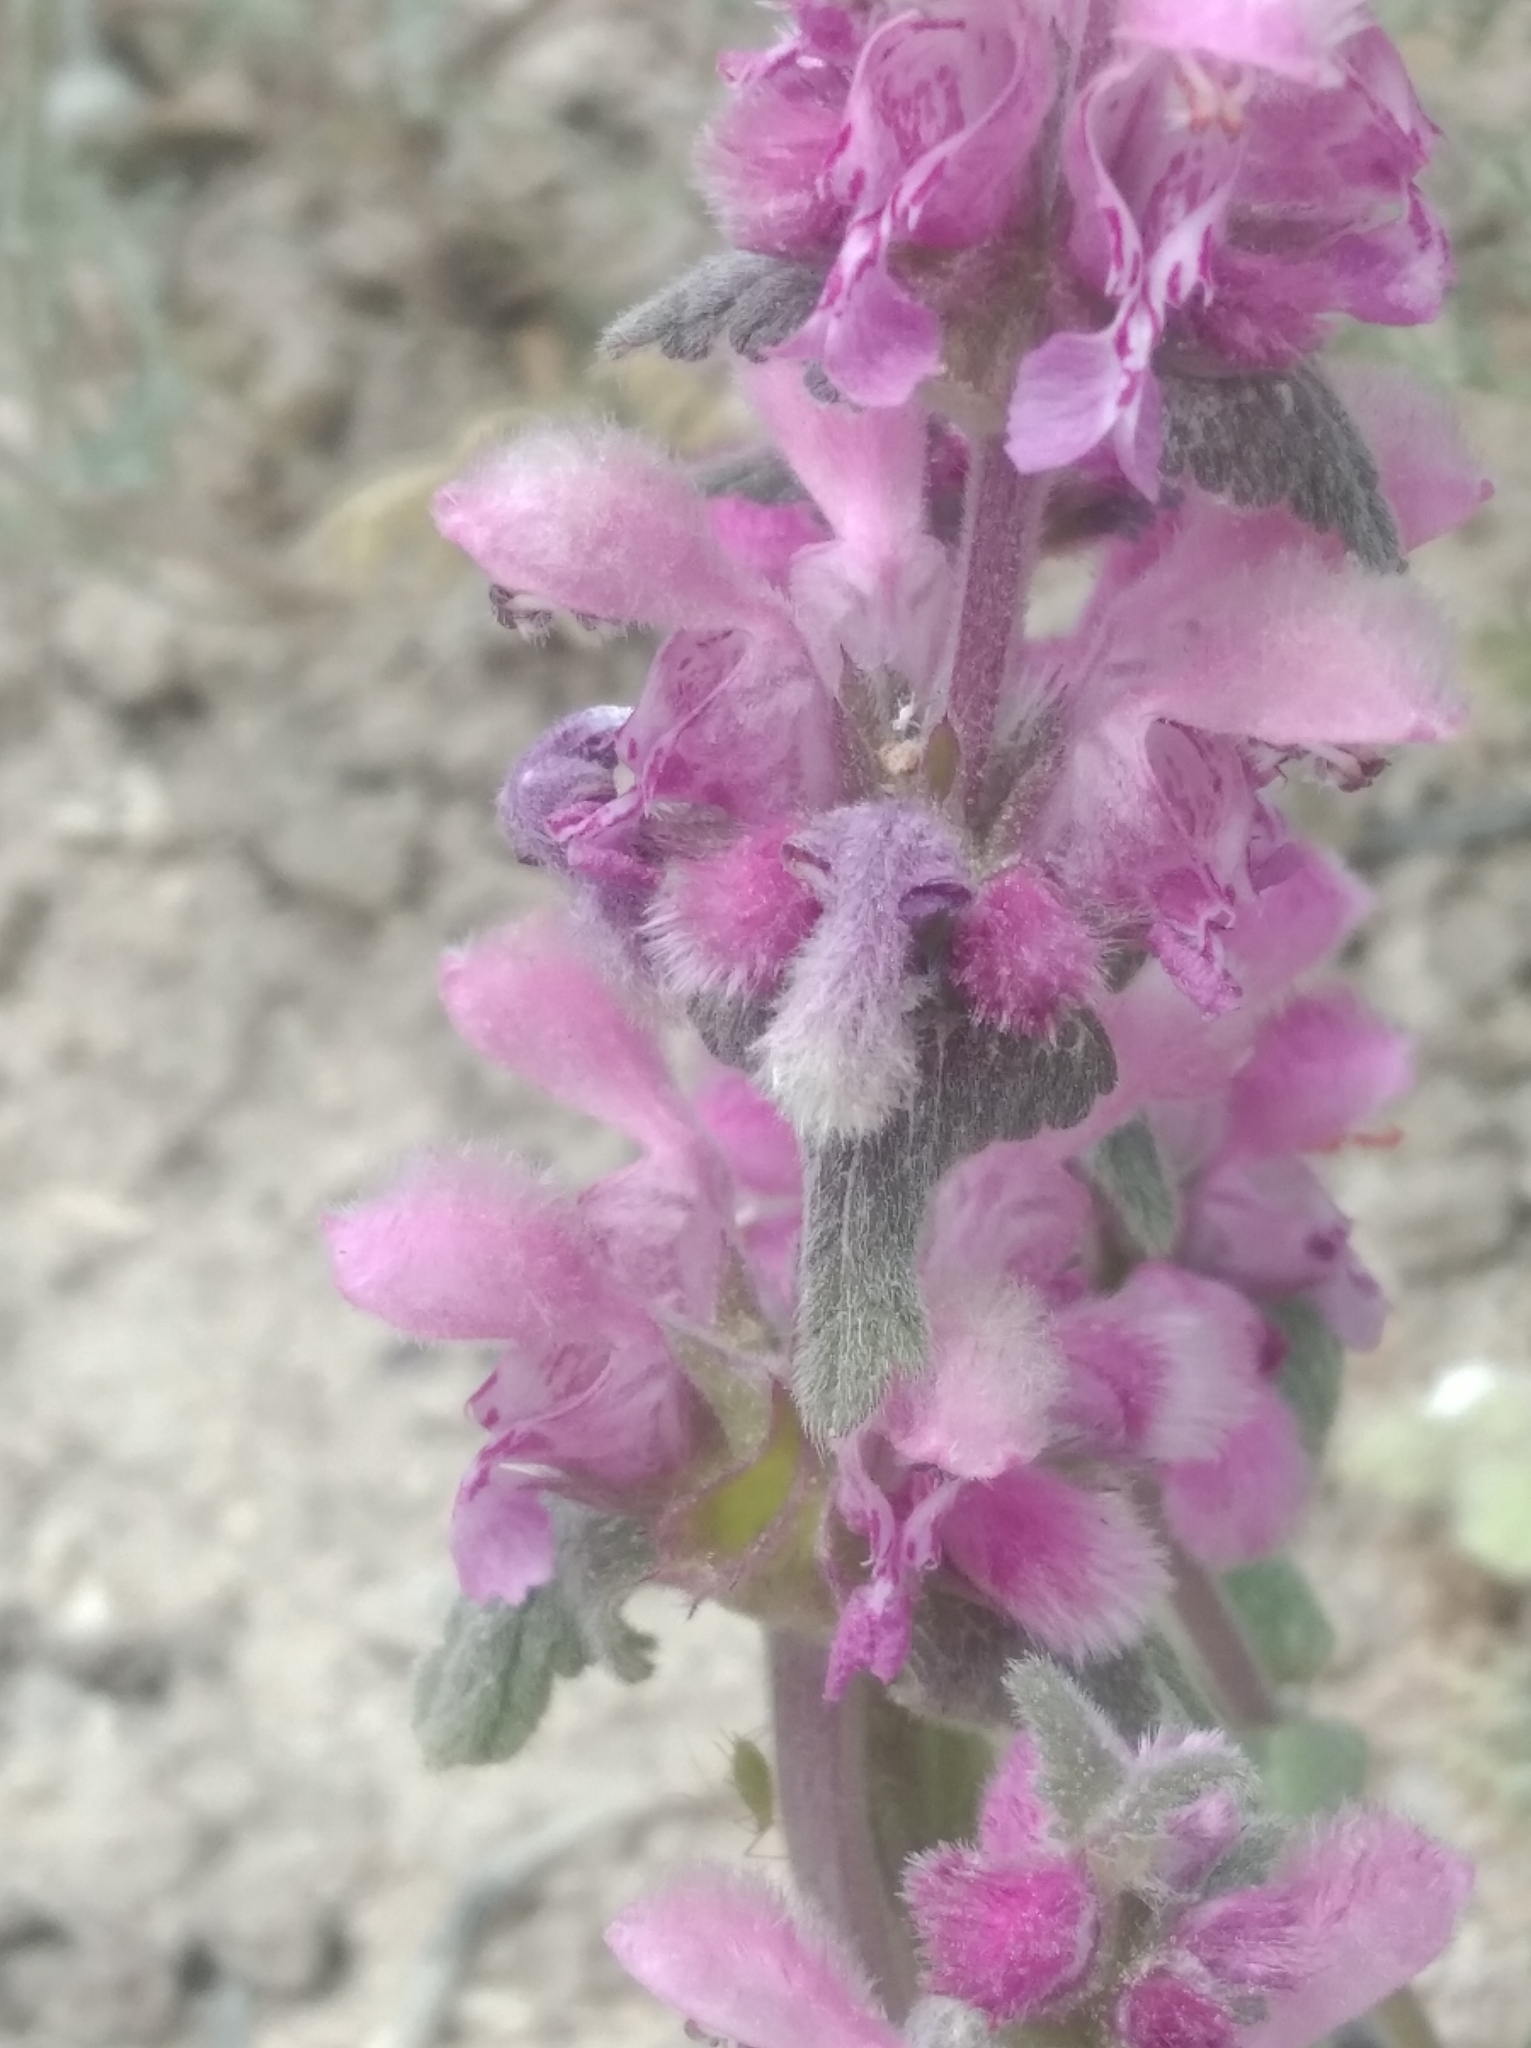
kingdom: Plantae
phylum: Tracheophyta
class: Magnoliopsida
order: Lamiales
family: Lamiaceae
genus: Lamium
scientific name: Lamium orientale
